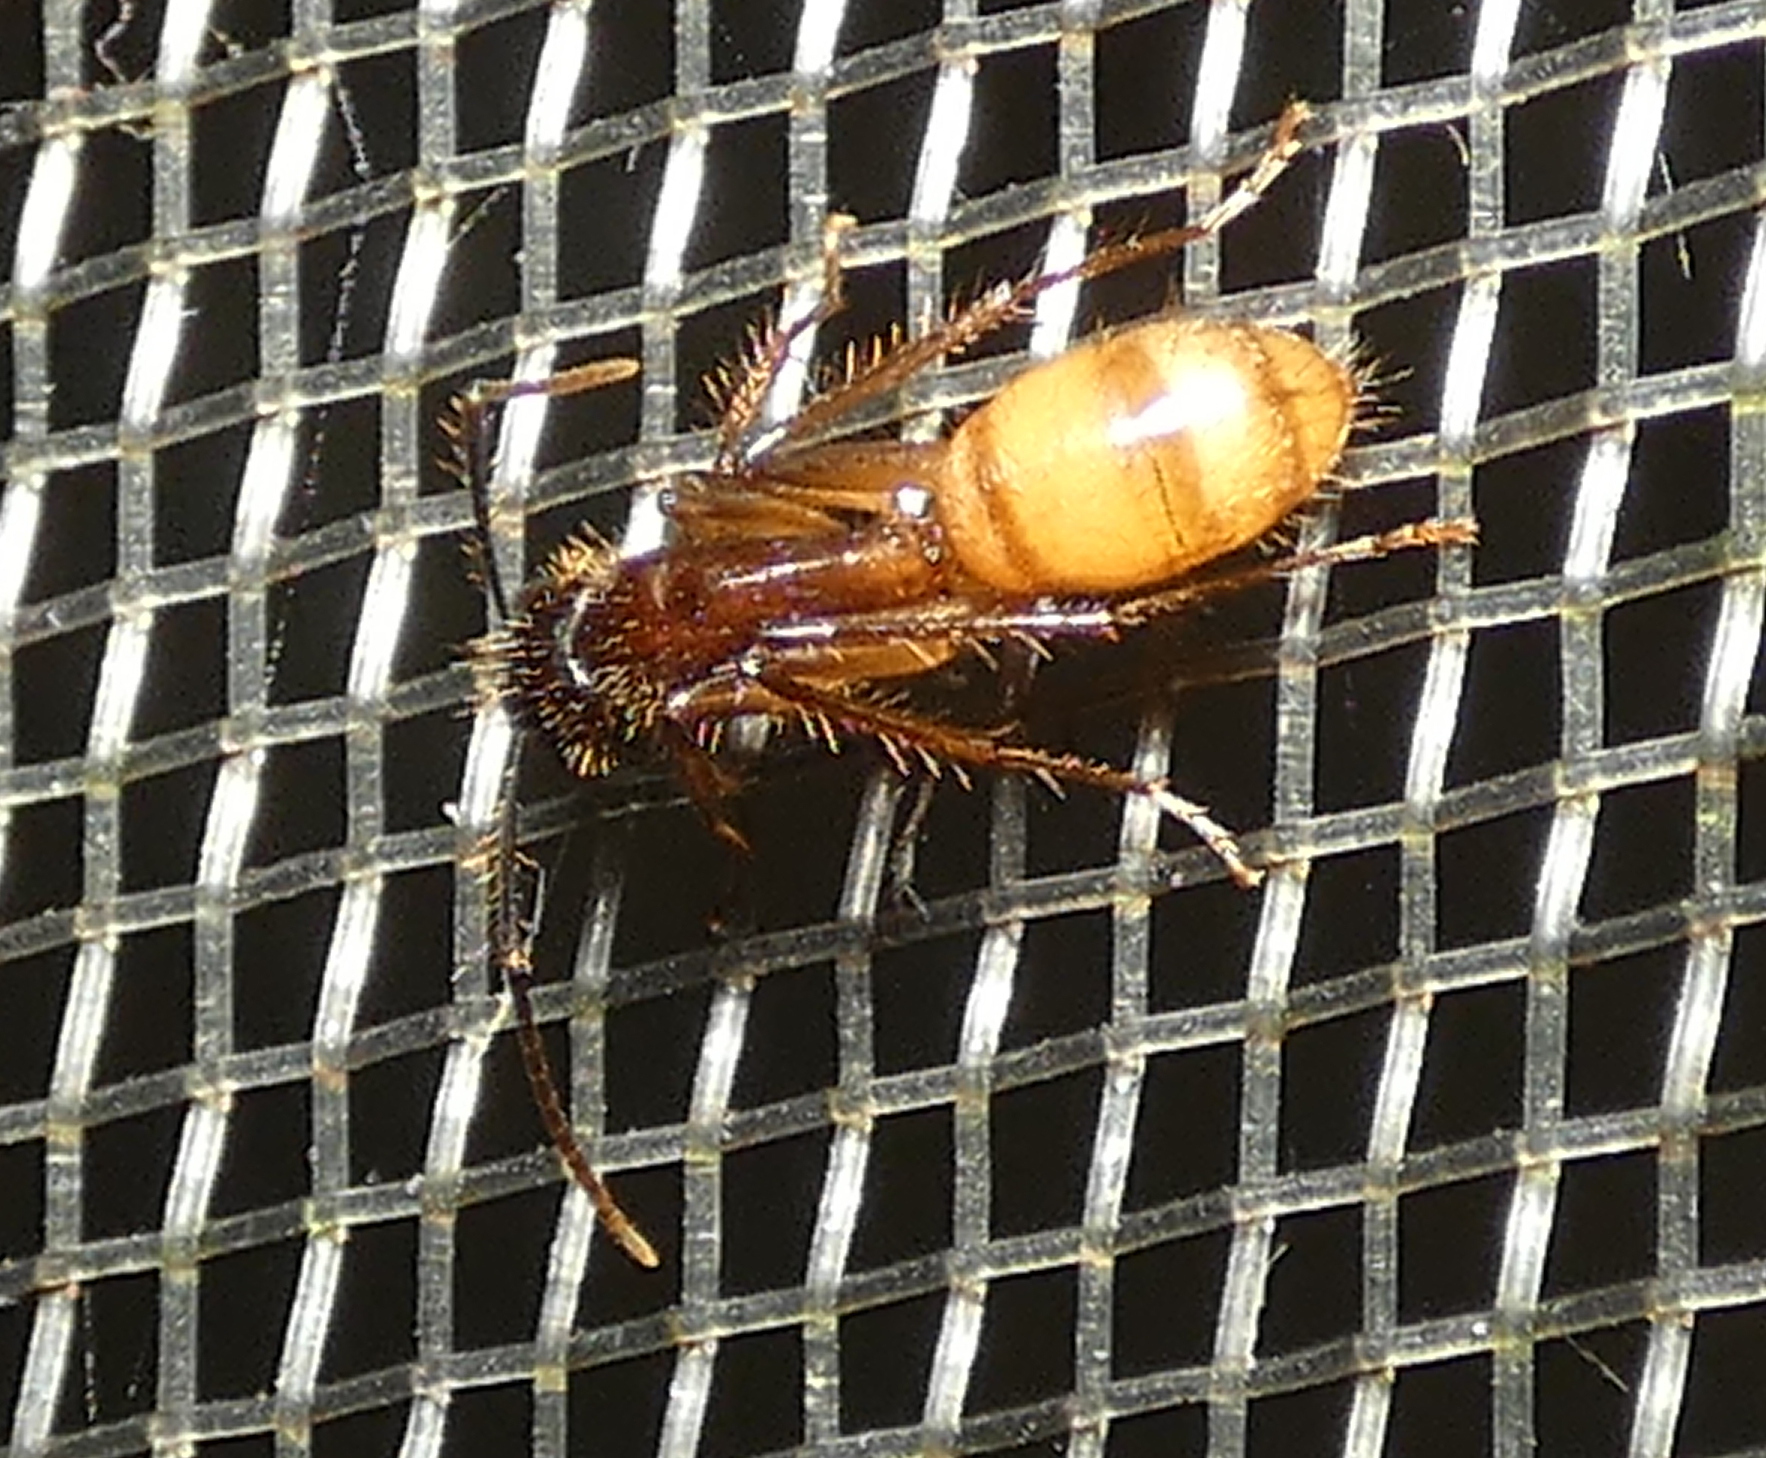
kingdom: Animalia
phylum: Arthropoda
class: Insecta
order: Hymenoptera
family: Formicidae
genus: Camponotus
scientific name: Camponotus atriceps
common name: Florida carpenter ant
